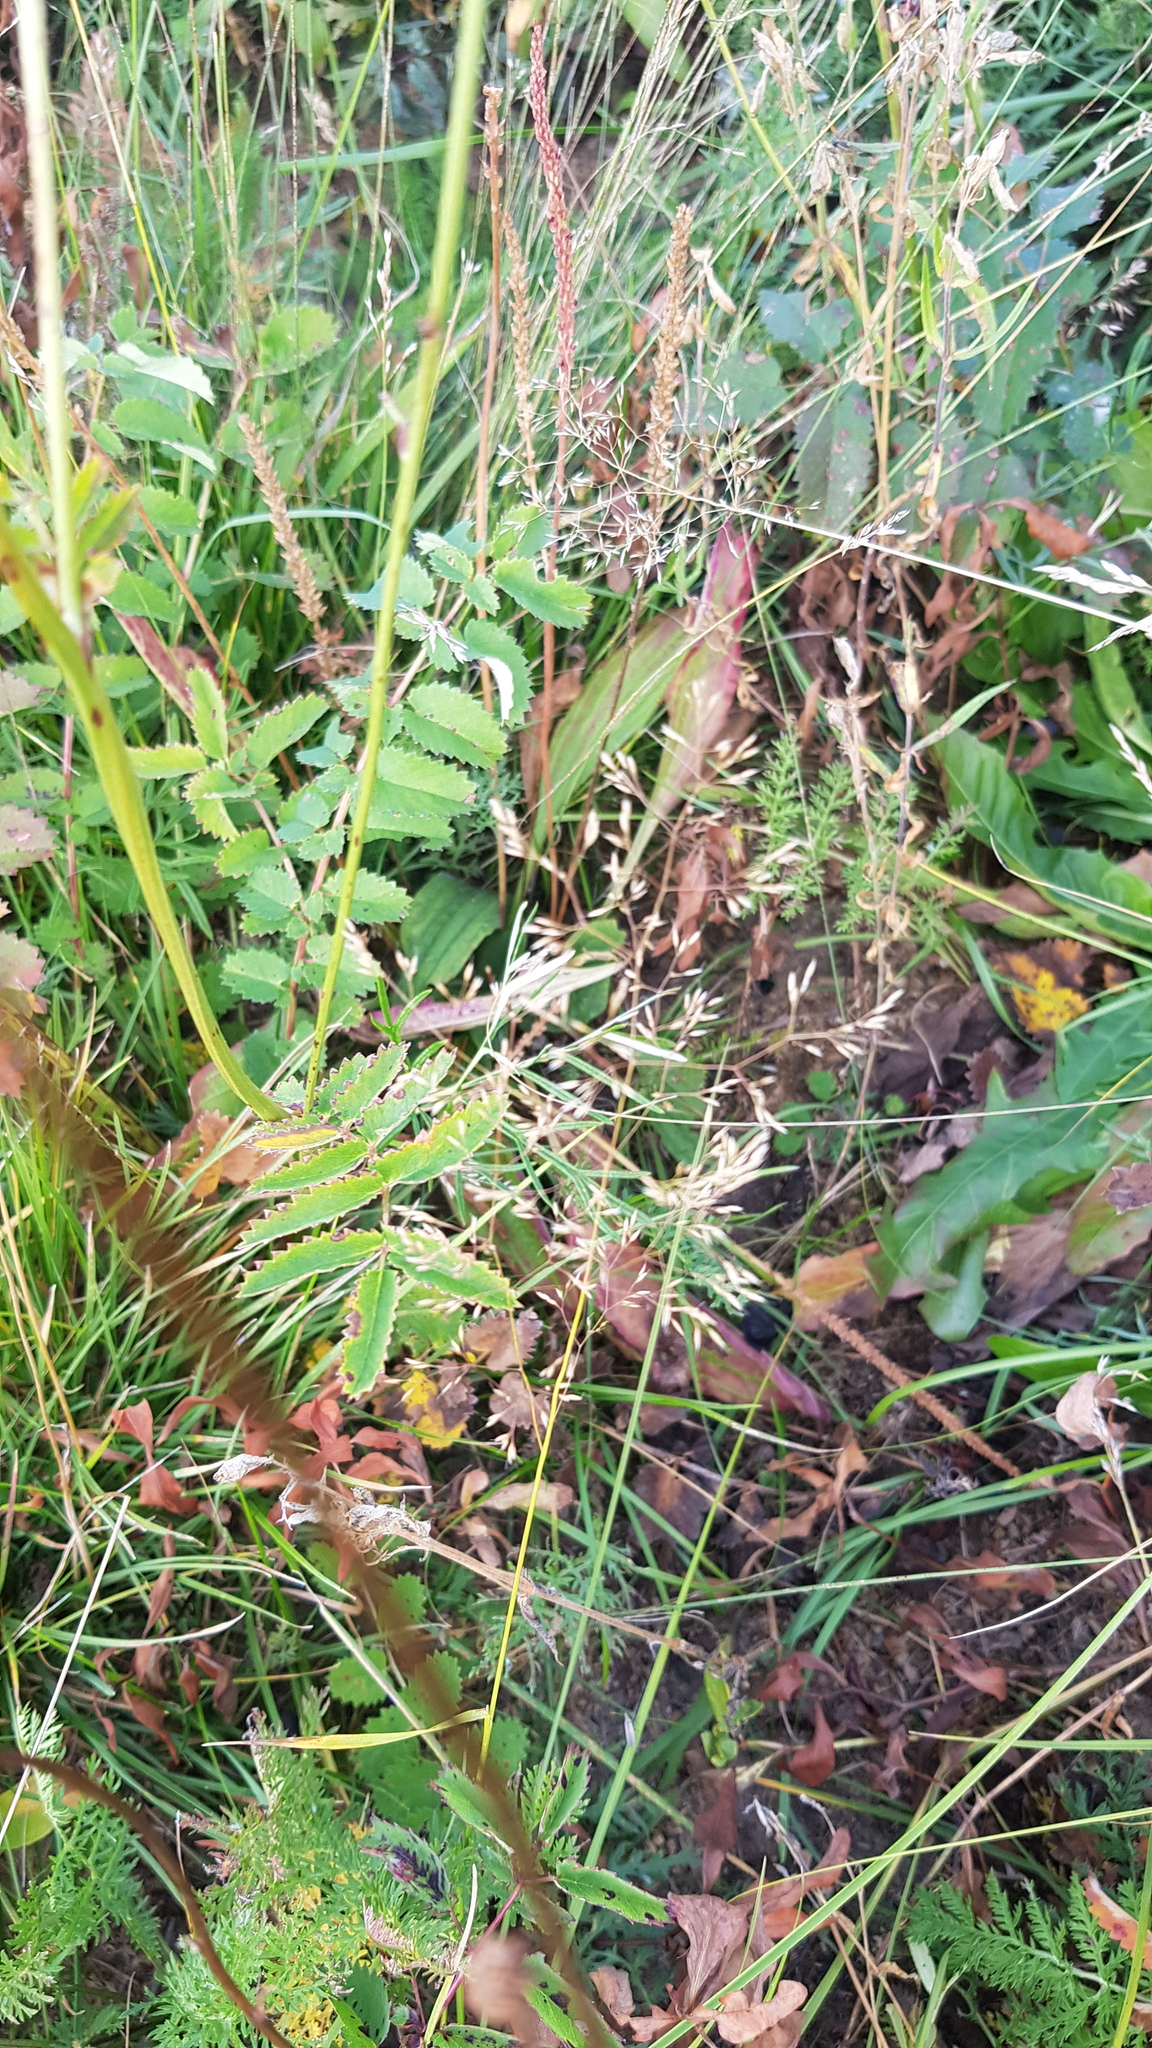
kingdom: Plantae
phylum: Tracheophyta
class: Magnoliopsida
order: Rosales
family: Rosaceae
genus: Sanguisorba
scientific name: Sanguisorba officinalis
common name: Great burnet
